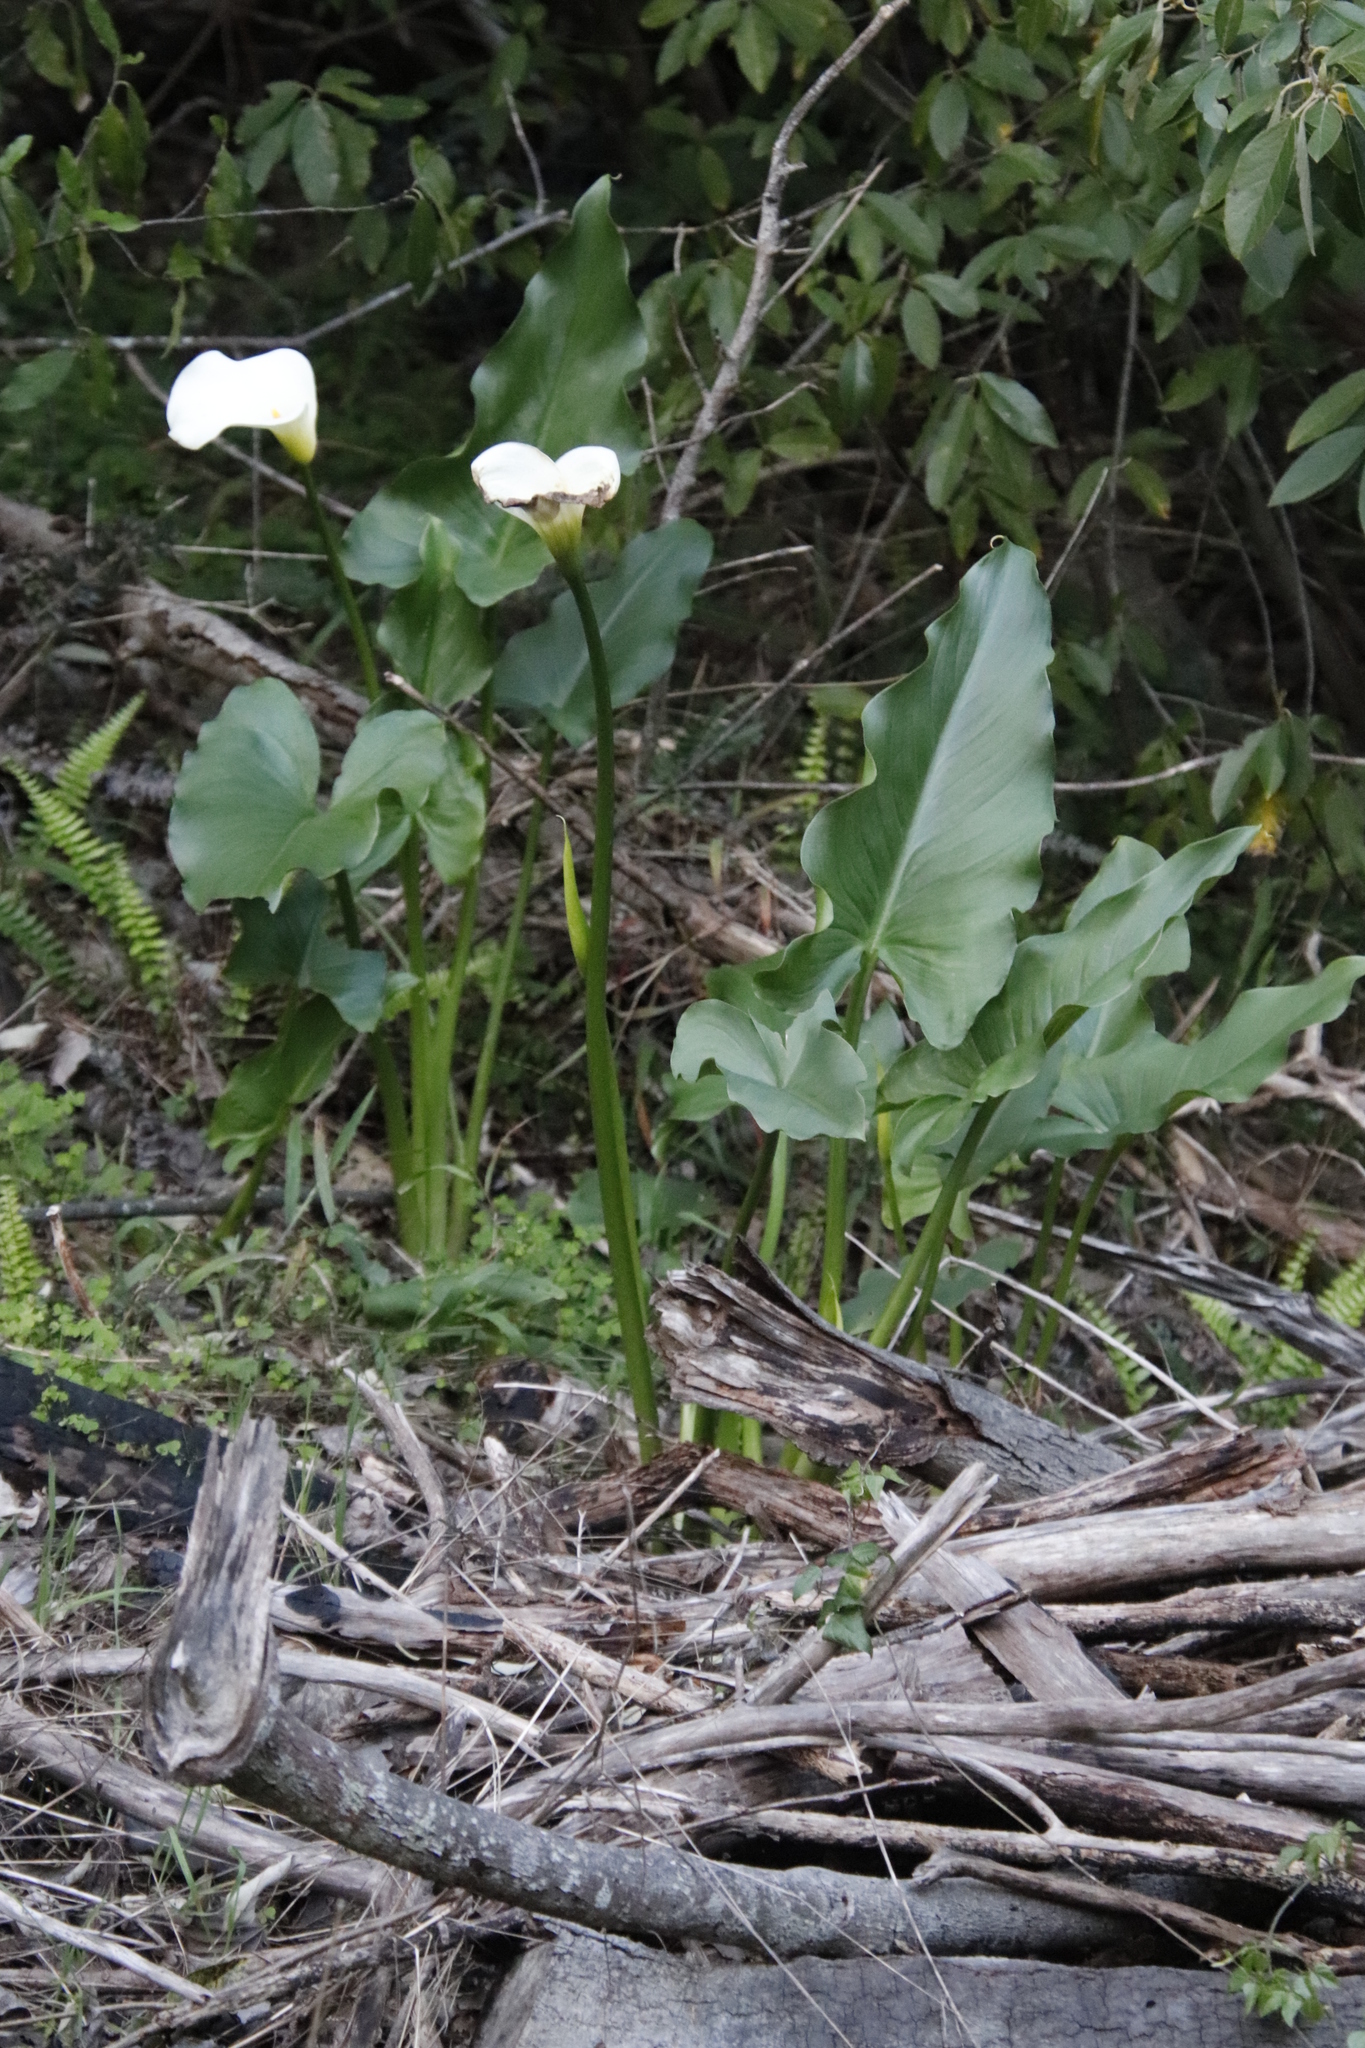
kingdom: Plantae
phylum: Tracheophyta
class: Liliopsida
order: Alismatales
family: Araceae
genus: Zantedeschia
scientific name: Zantedeschia aethiopica
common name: Altar-lily
